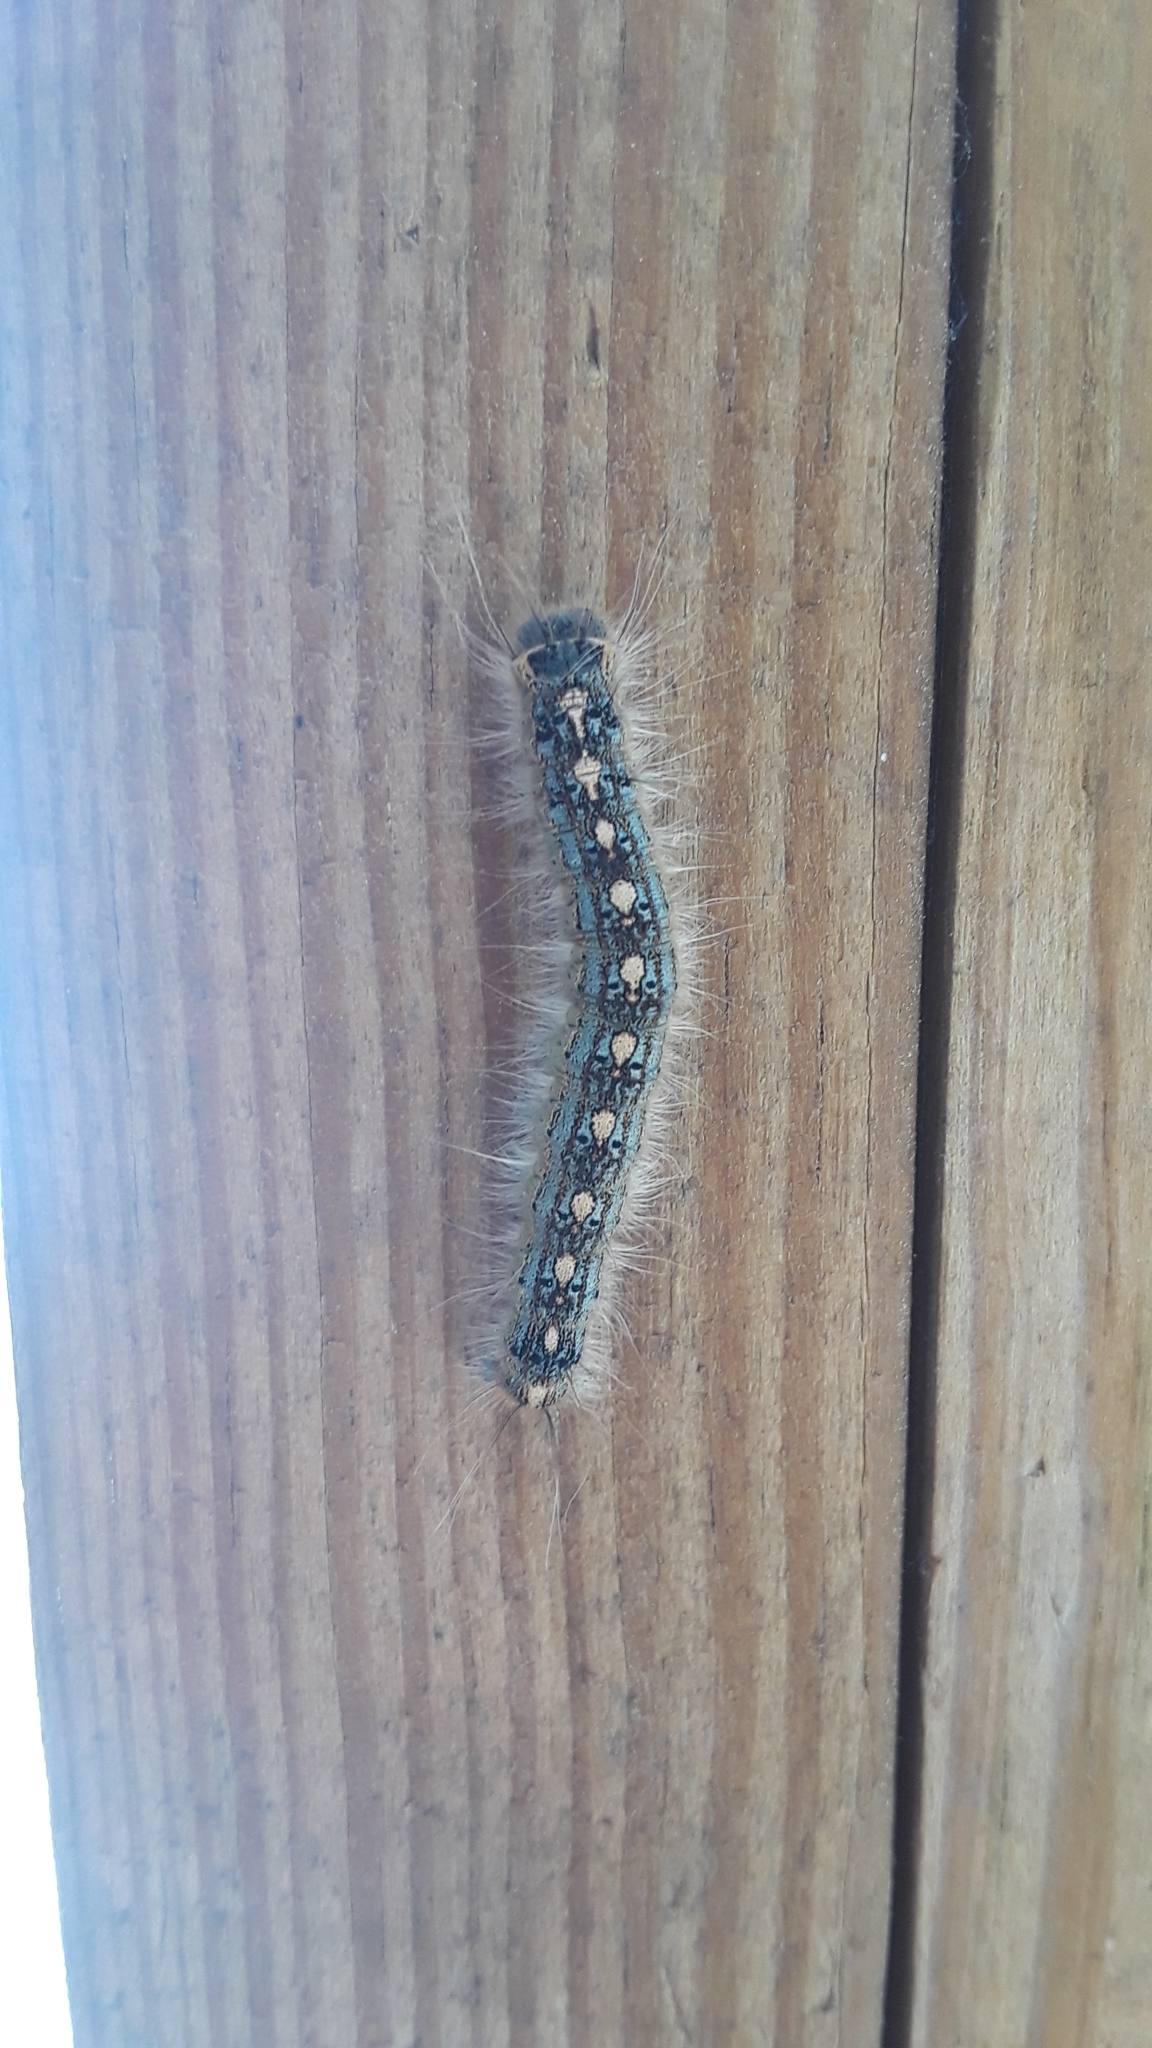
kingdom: Animalia
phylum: Arthropoda
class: Insecta
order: Lepidoptera
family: Lasiocampidae
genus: Malacosoma
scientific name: Malacosoma disstria
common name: Forest tent caterpillar
